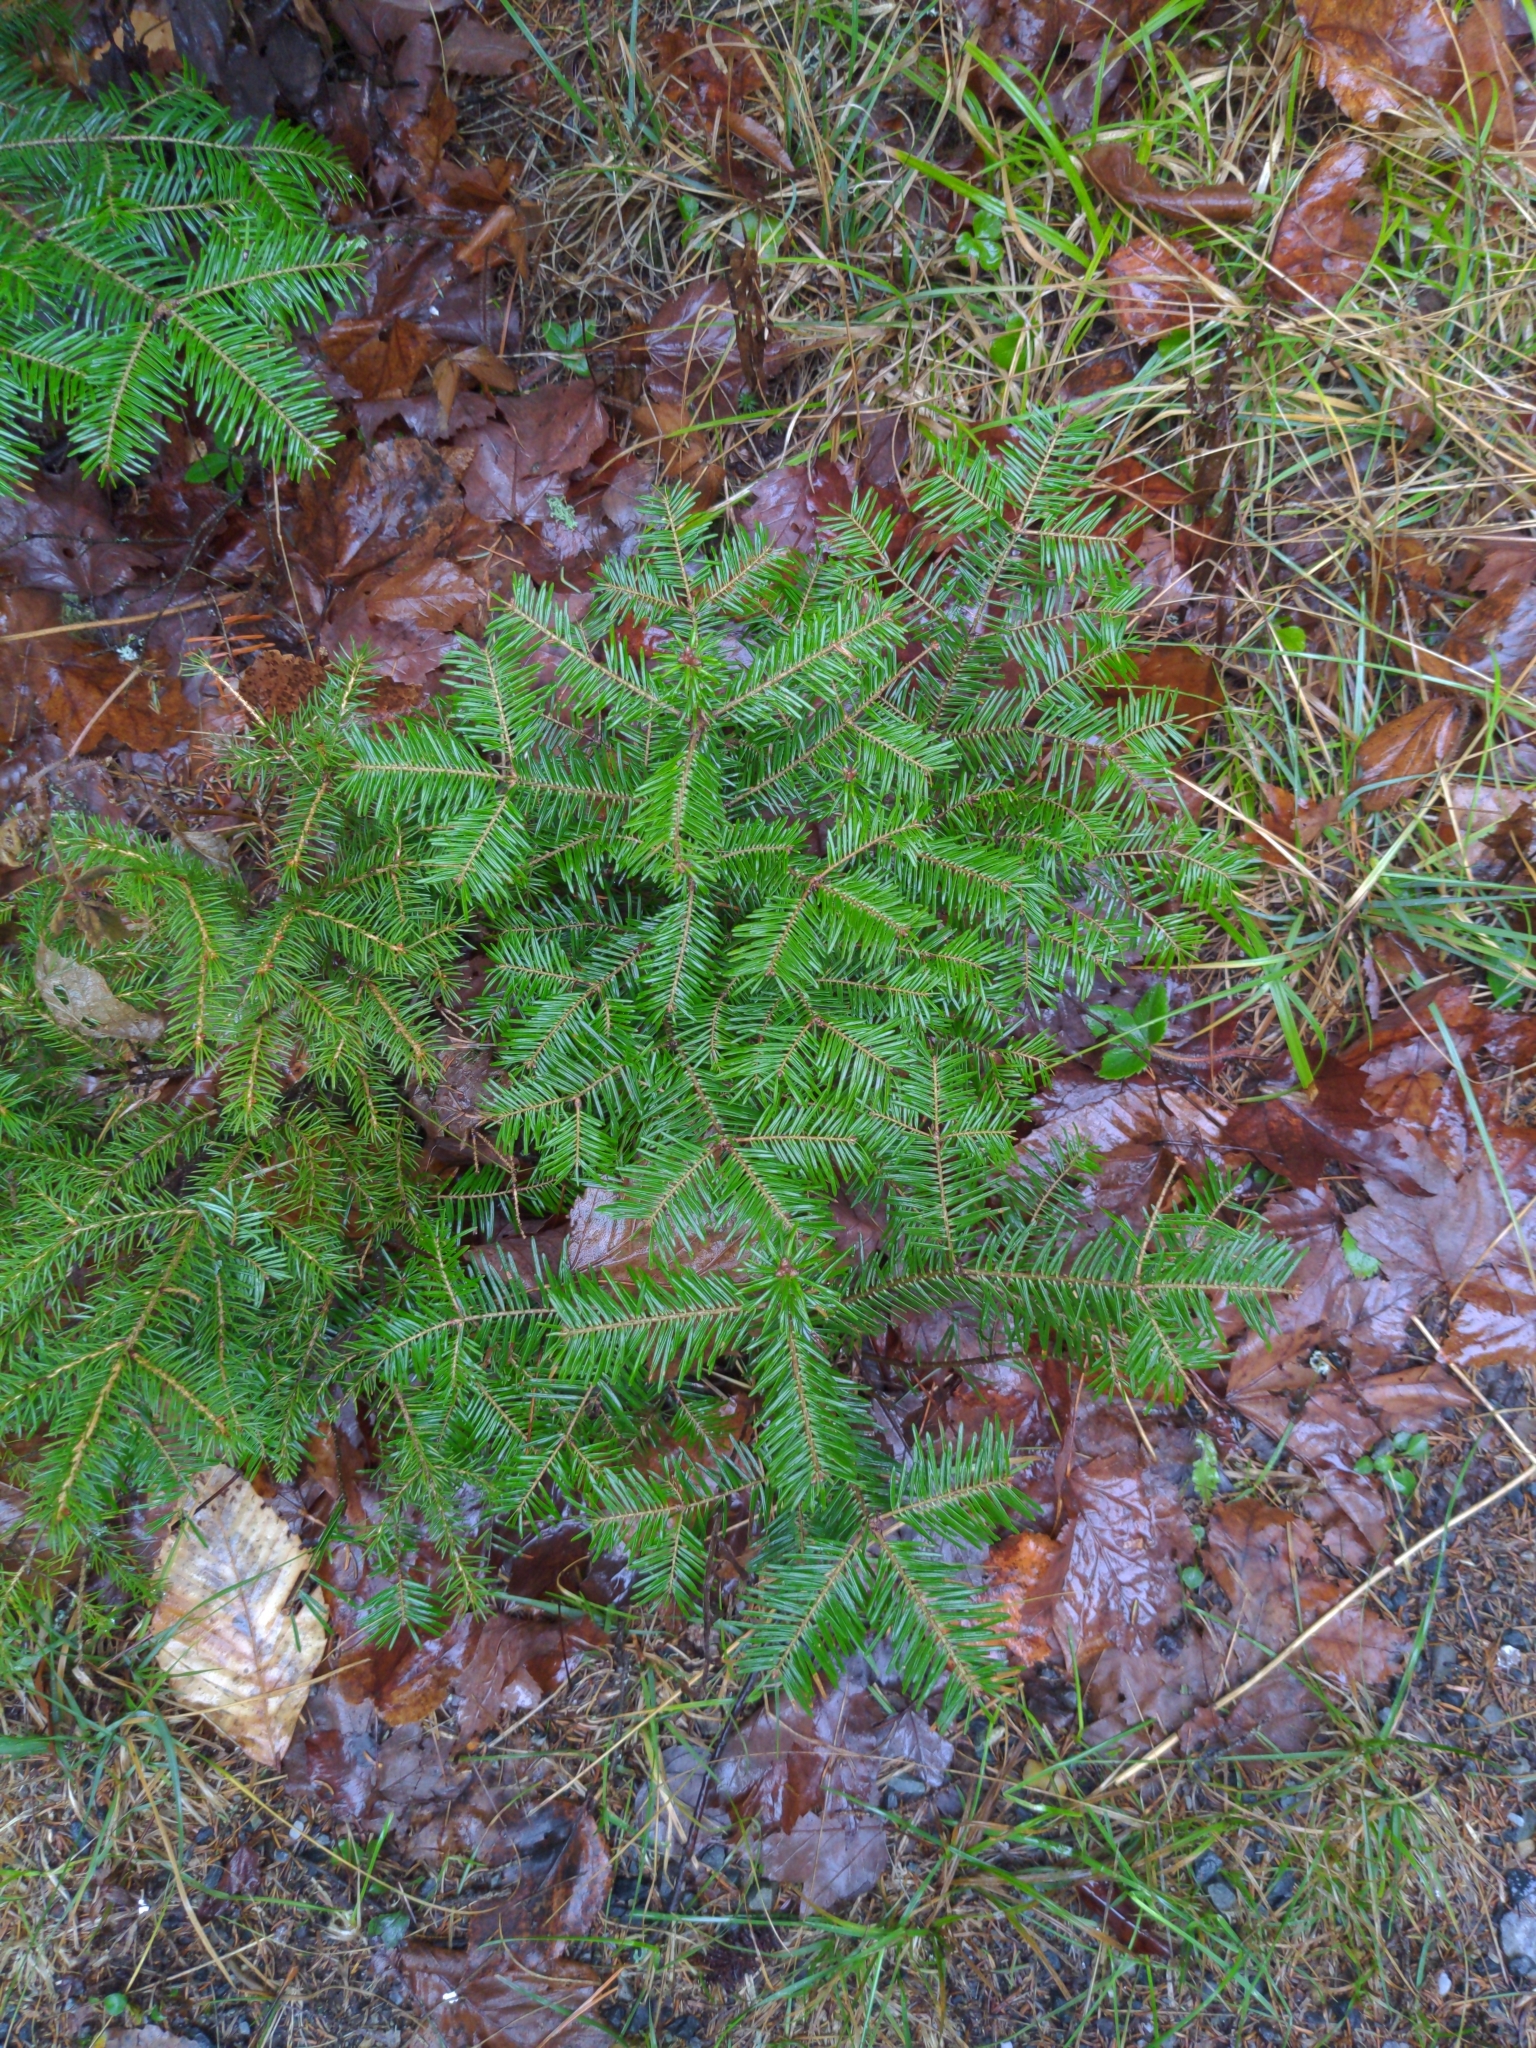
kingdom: Plantae
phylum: Tracheophyta
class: Pinopsida
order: Pinales
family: Pinaceae
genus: Abies
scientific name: Abies balsamea
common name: Balsam fir
